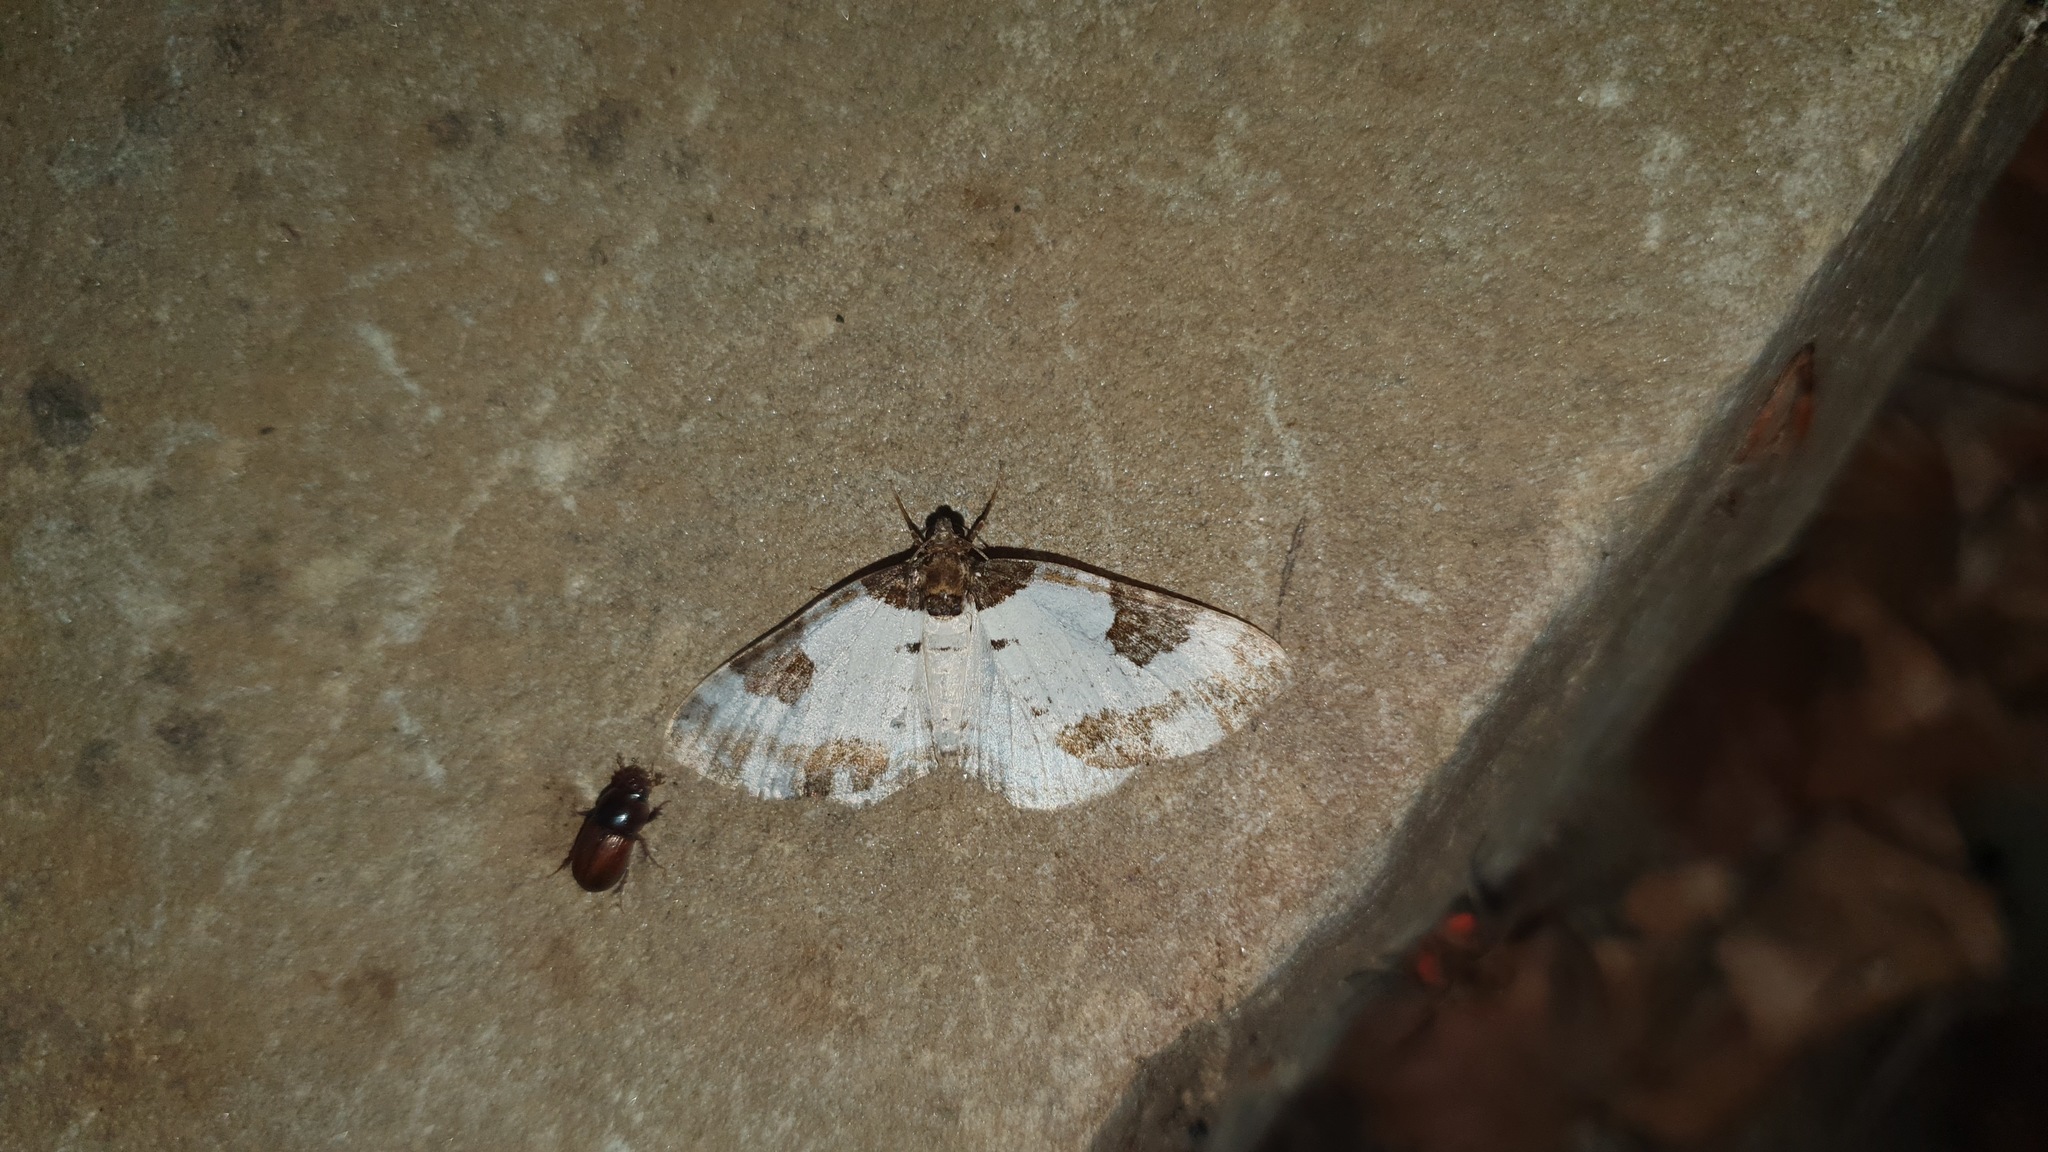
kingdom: Animalia
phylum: Arthropoda
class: Insecta
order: Lepidoptera
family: Geometridae
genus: Melanthia
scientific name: Melanthia procellata
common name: Pretty chalk carpet
